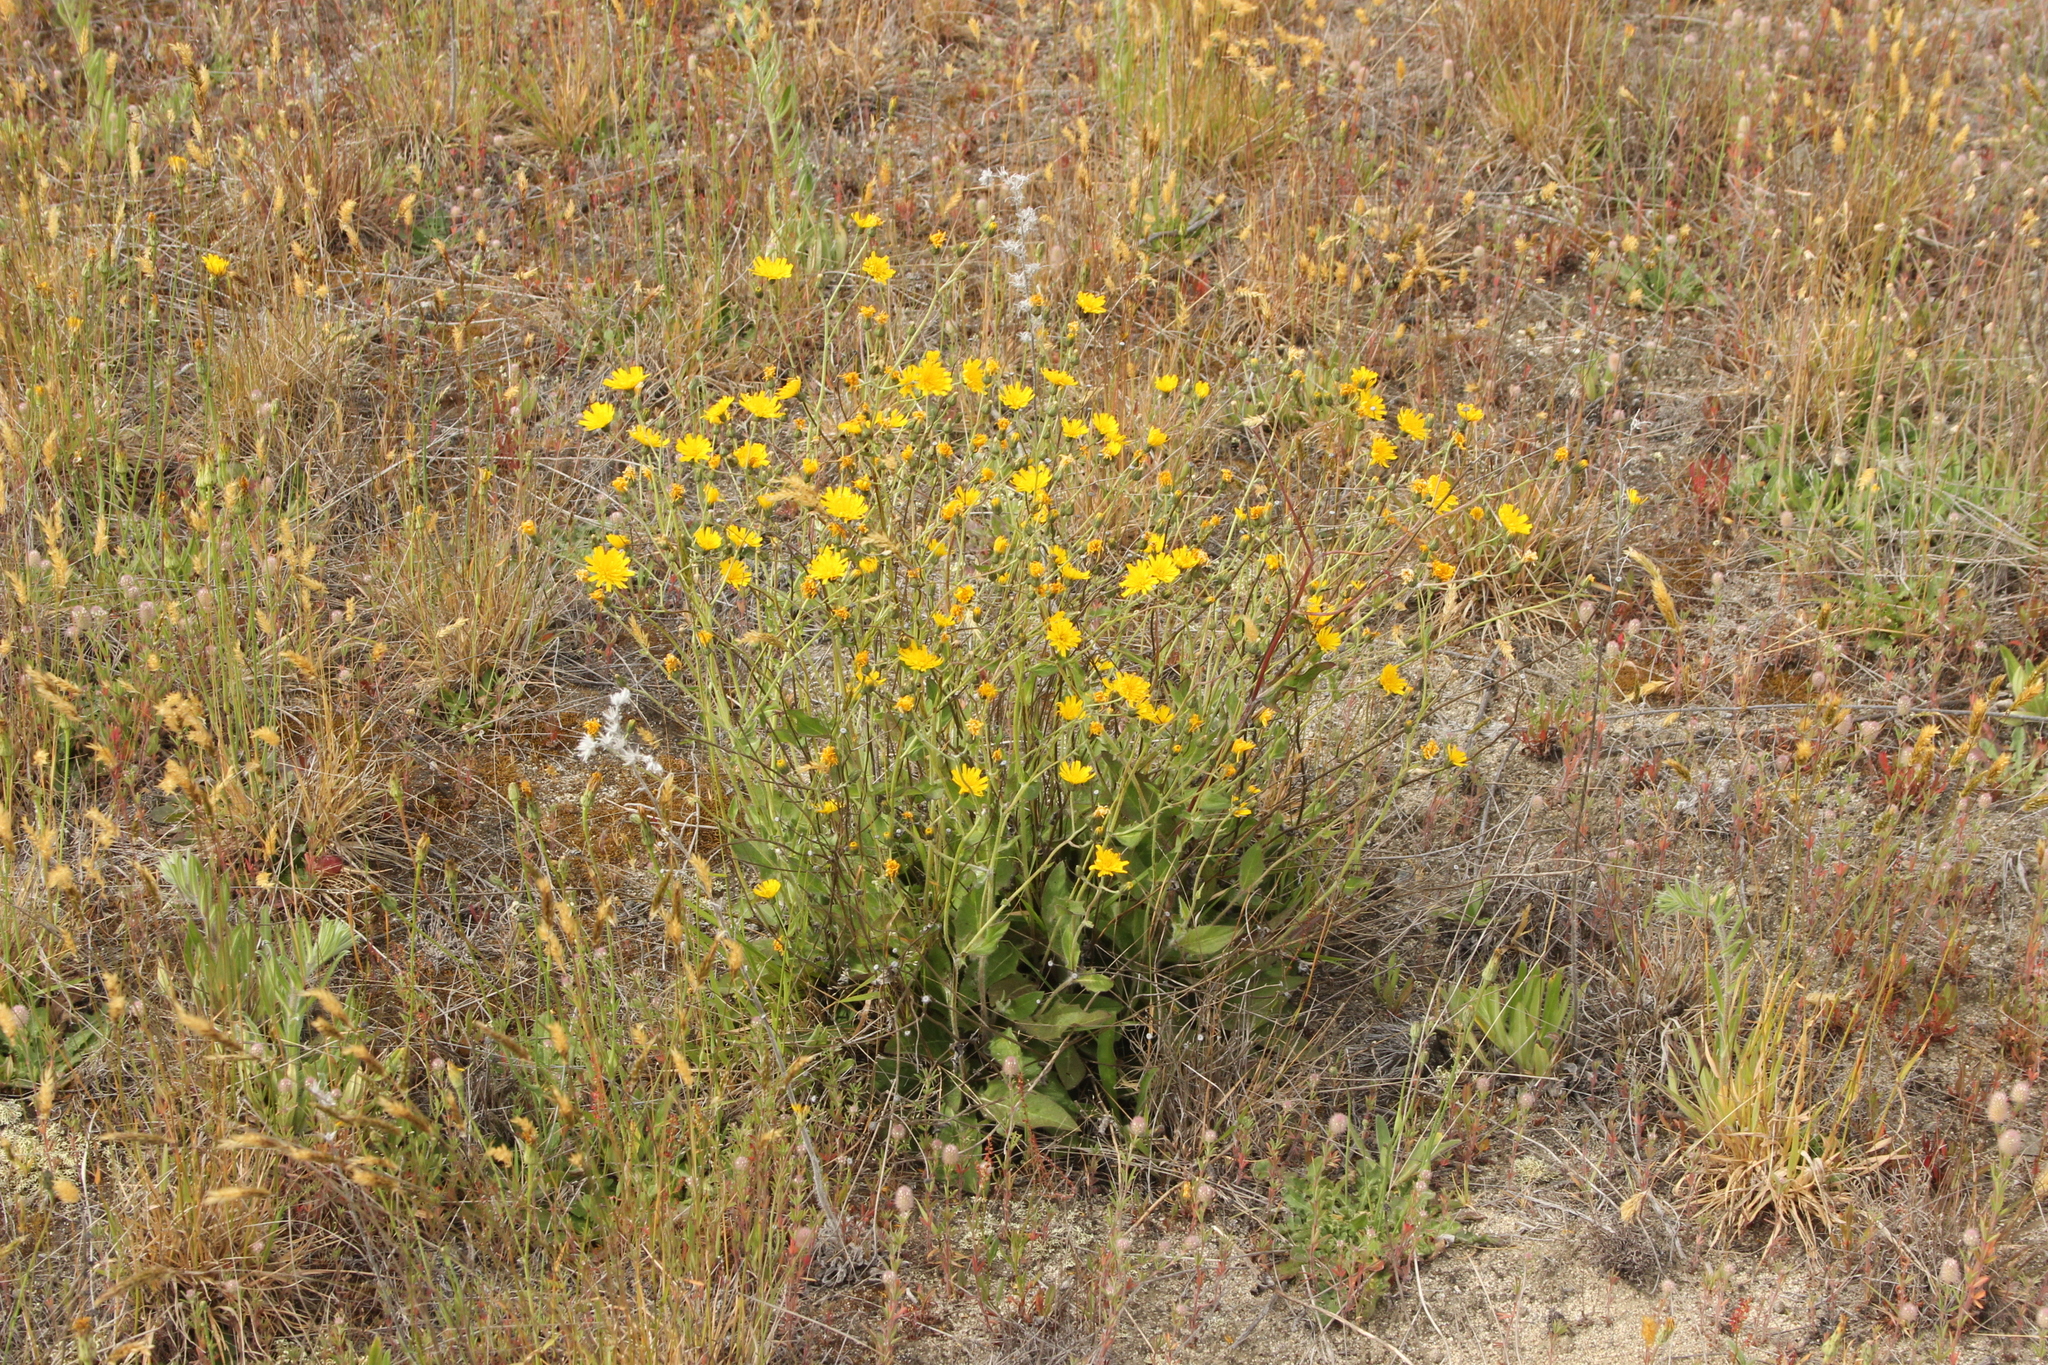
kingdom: Plantae
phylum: Tracheophyta
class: Magnoliopsida
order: Asterales
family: Asteraceae
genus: Hieracium
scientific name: Hieracium lepidulum
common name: Irregular-toothed hawkweed
